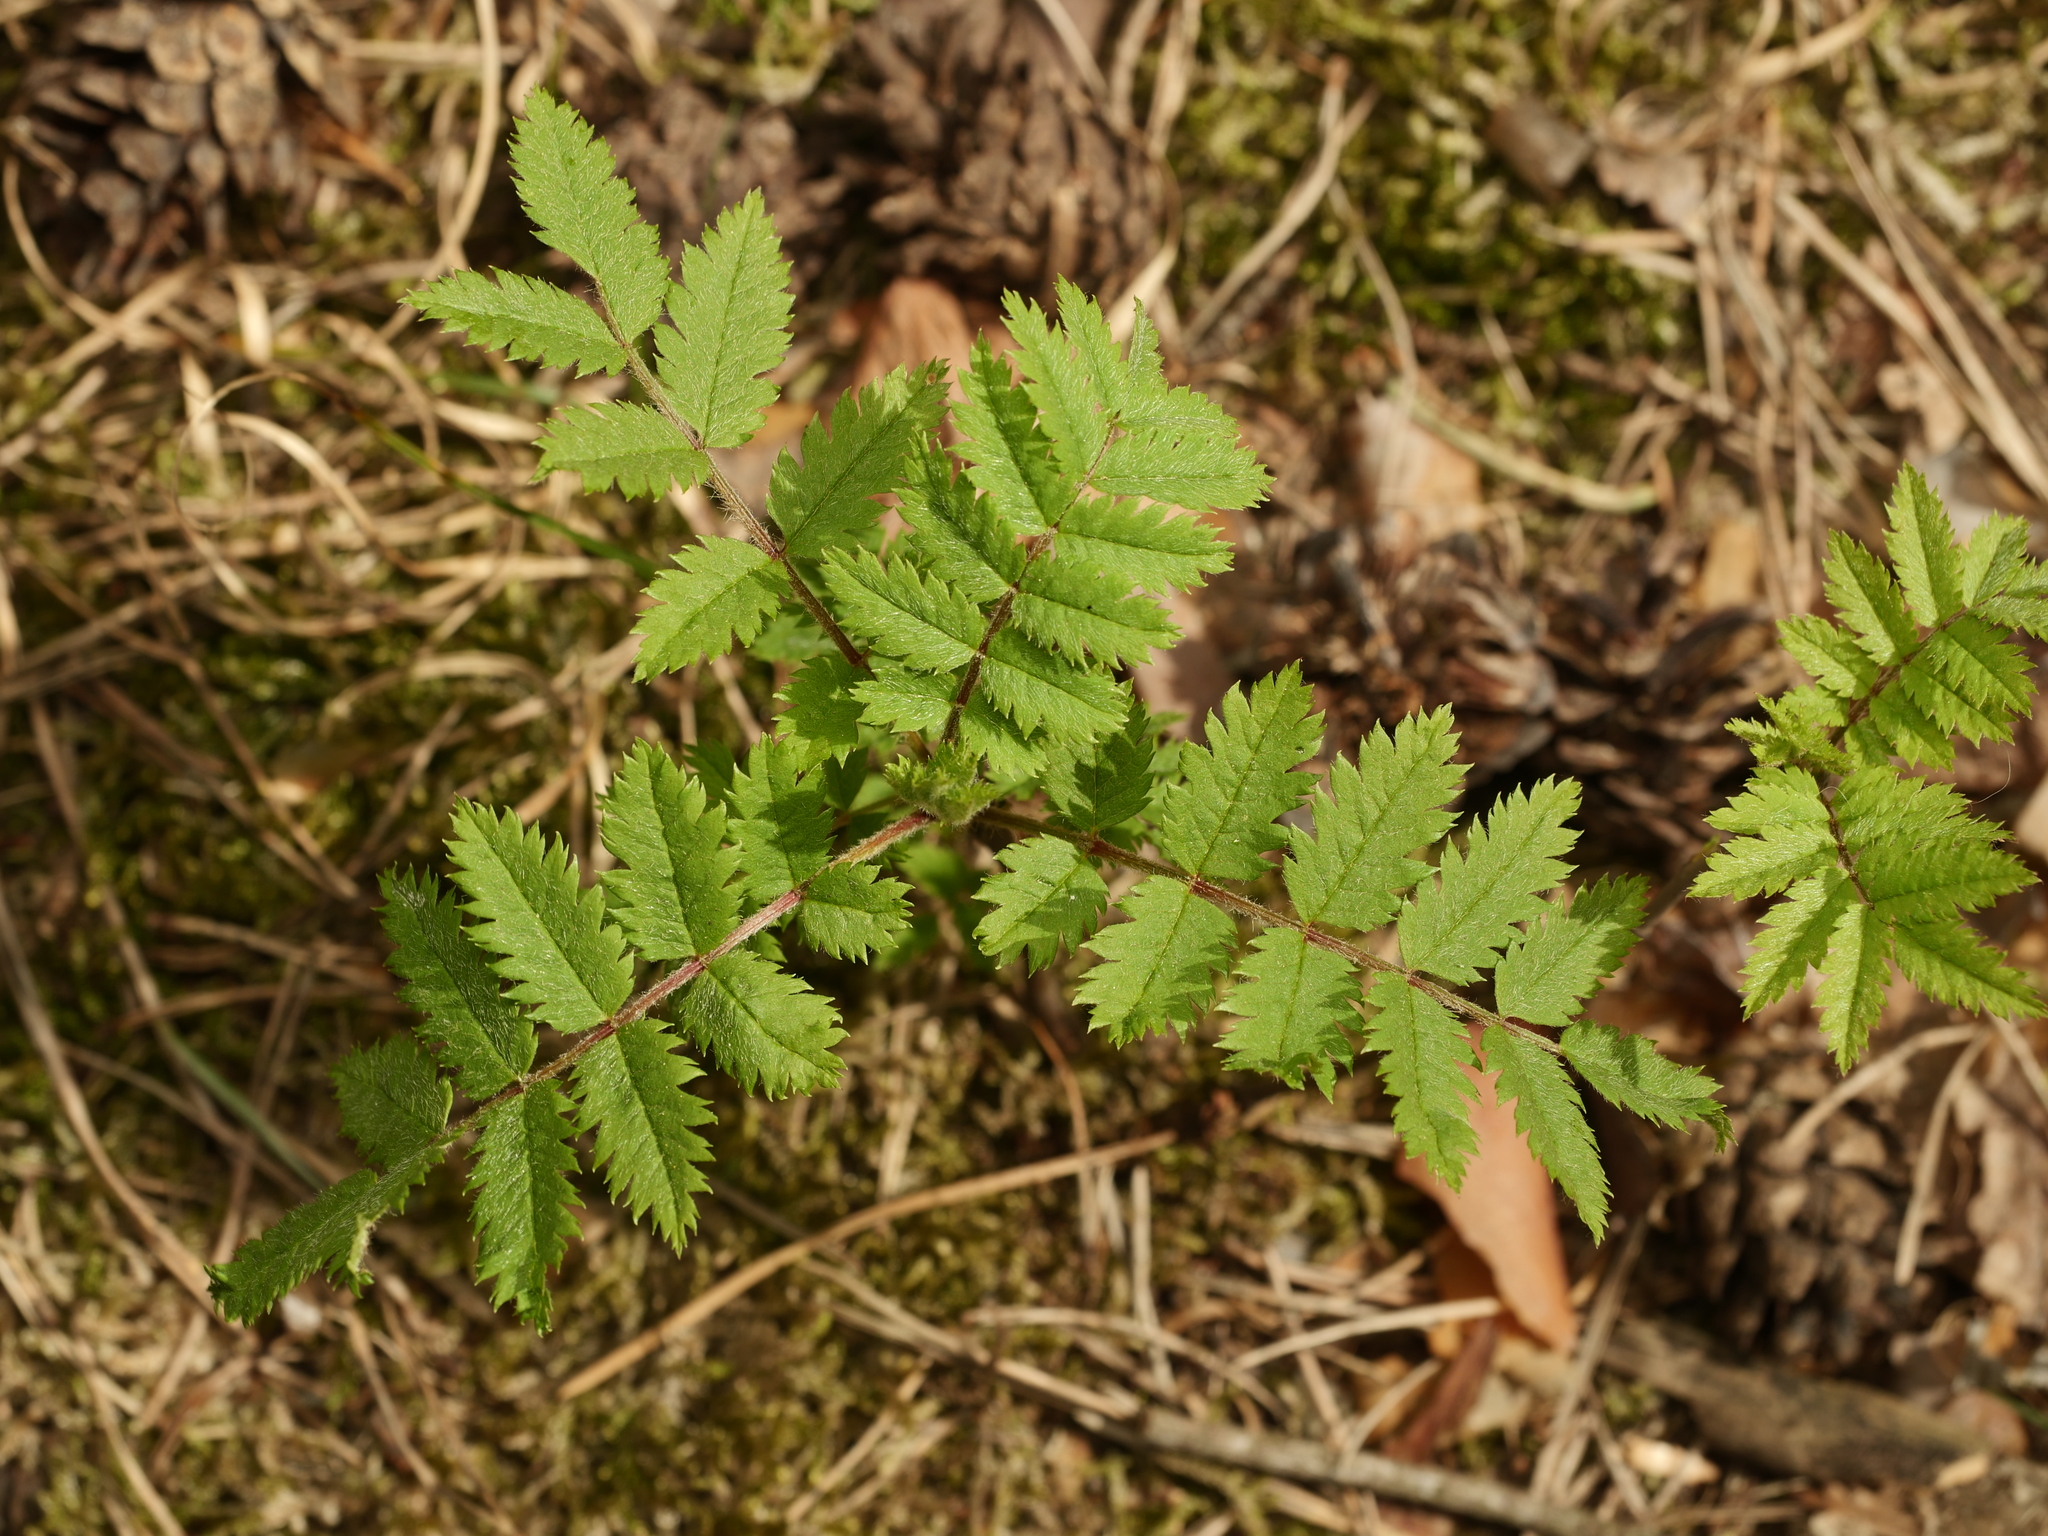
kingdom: Plantae
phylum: Tracheophyta
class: Magnoliopsida
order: Rosales
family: Rosaceae
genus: Sorbus
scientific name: Sorbus aucuparia
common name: Rowan
